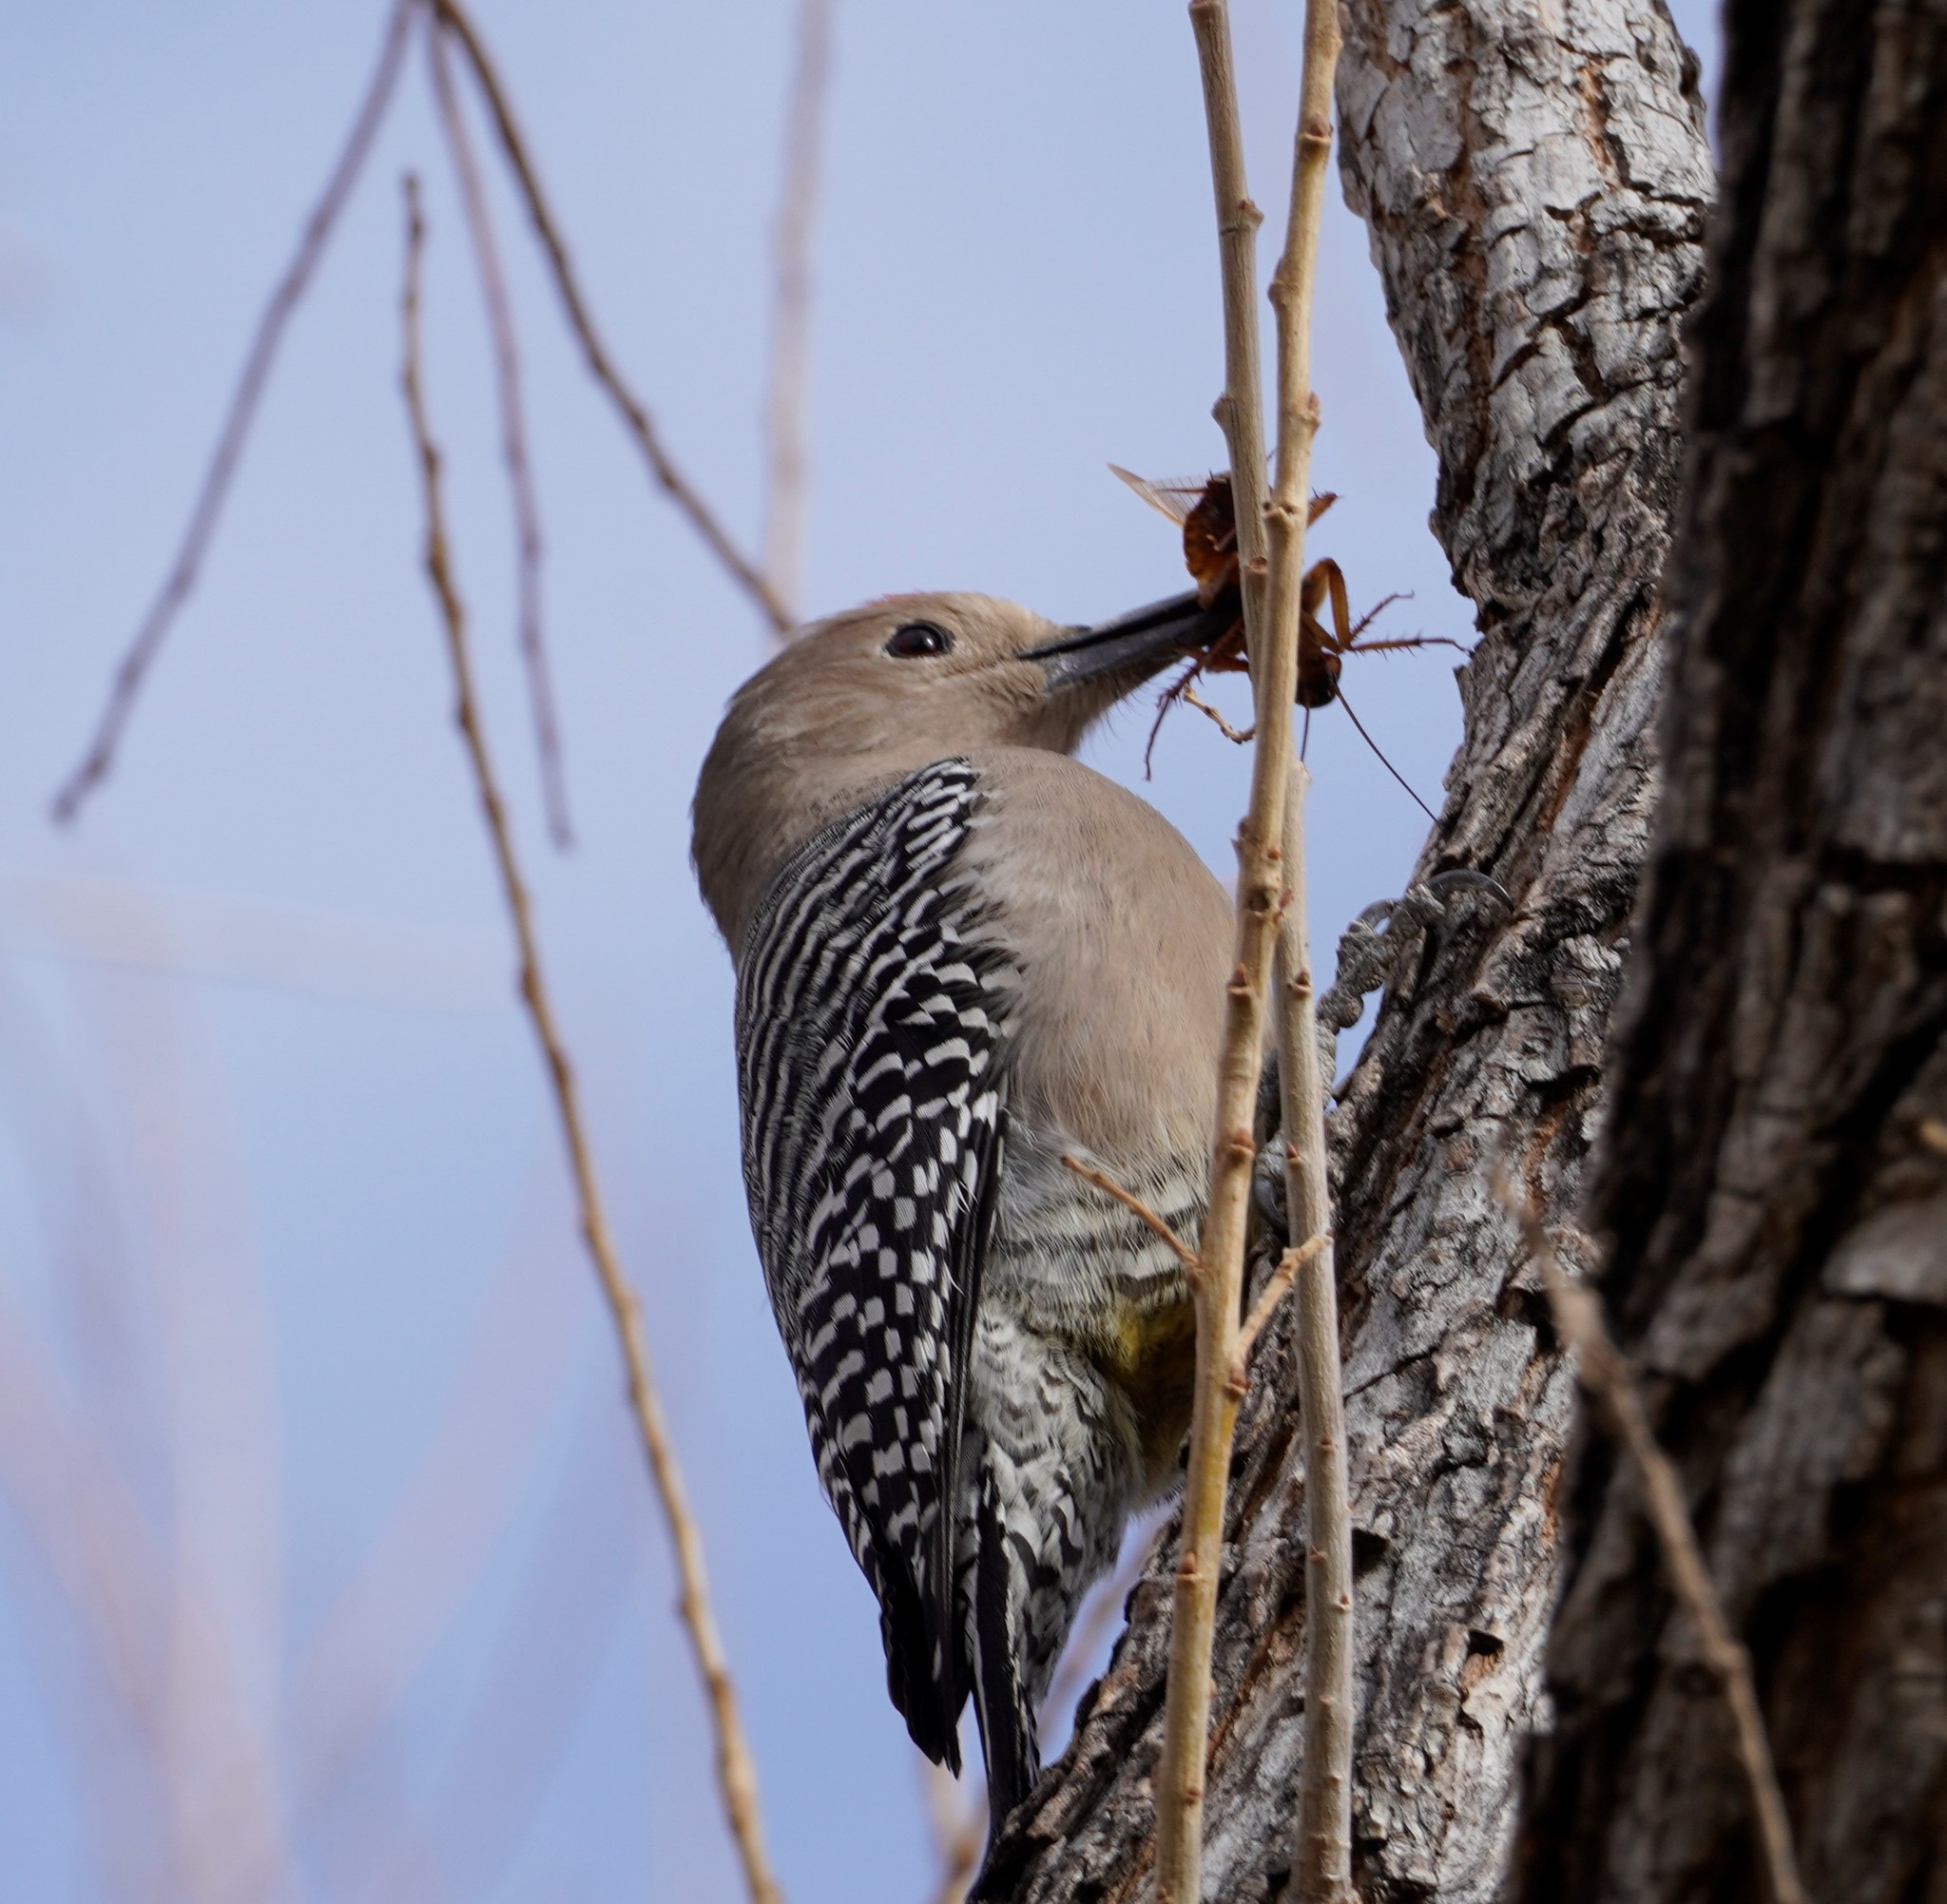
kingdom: Animalia
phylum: Chordata
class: Aves
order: Piciformes
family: Picidae
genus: Melanerpes
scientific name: Melanerpes uropygialis
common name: Gila woodpecker
